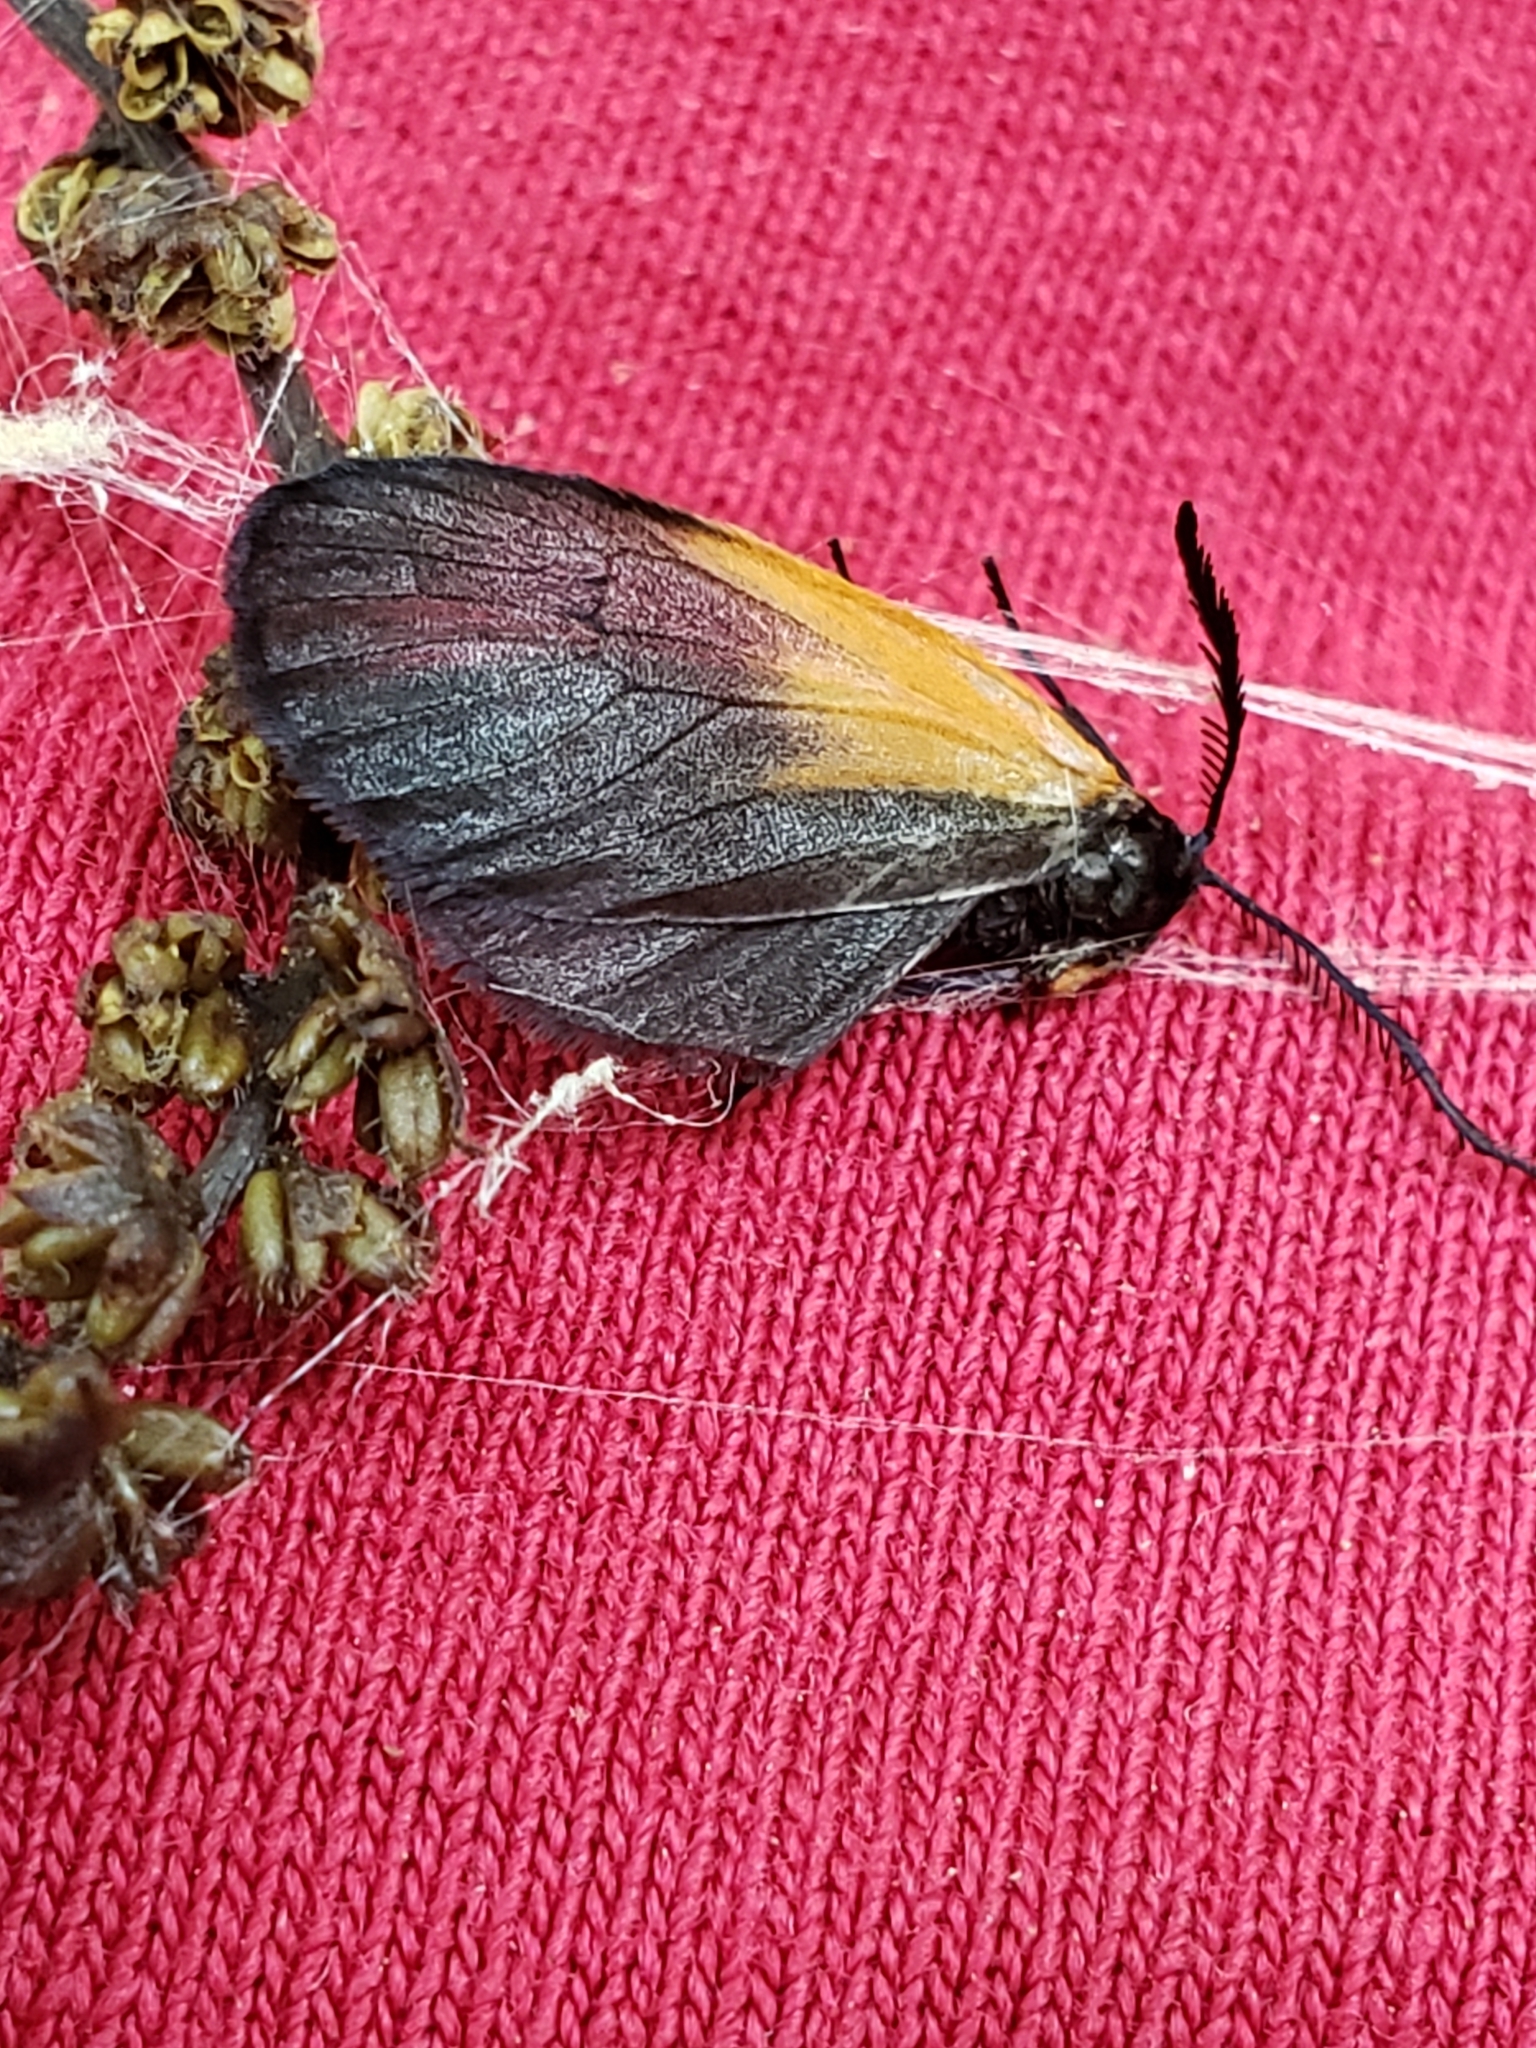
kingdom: Animalia
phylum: Arthropoda
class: Insecta
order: Lepidoptera
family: Zygaenidae
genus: Malthaca
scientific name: Malthaca dimidiata
